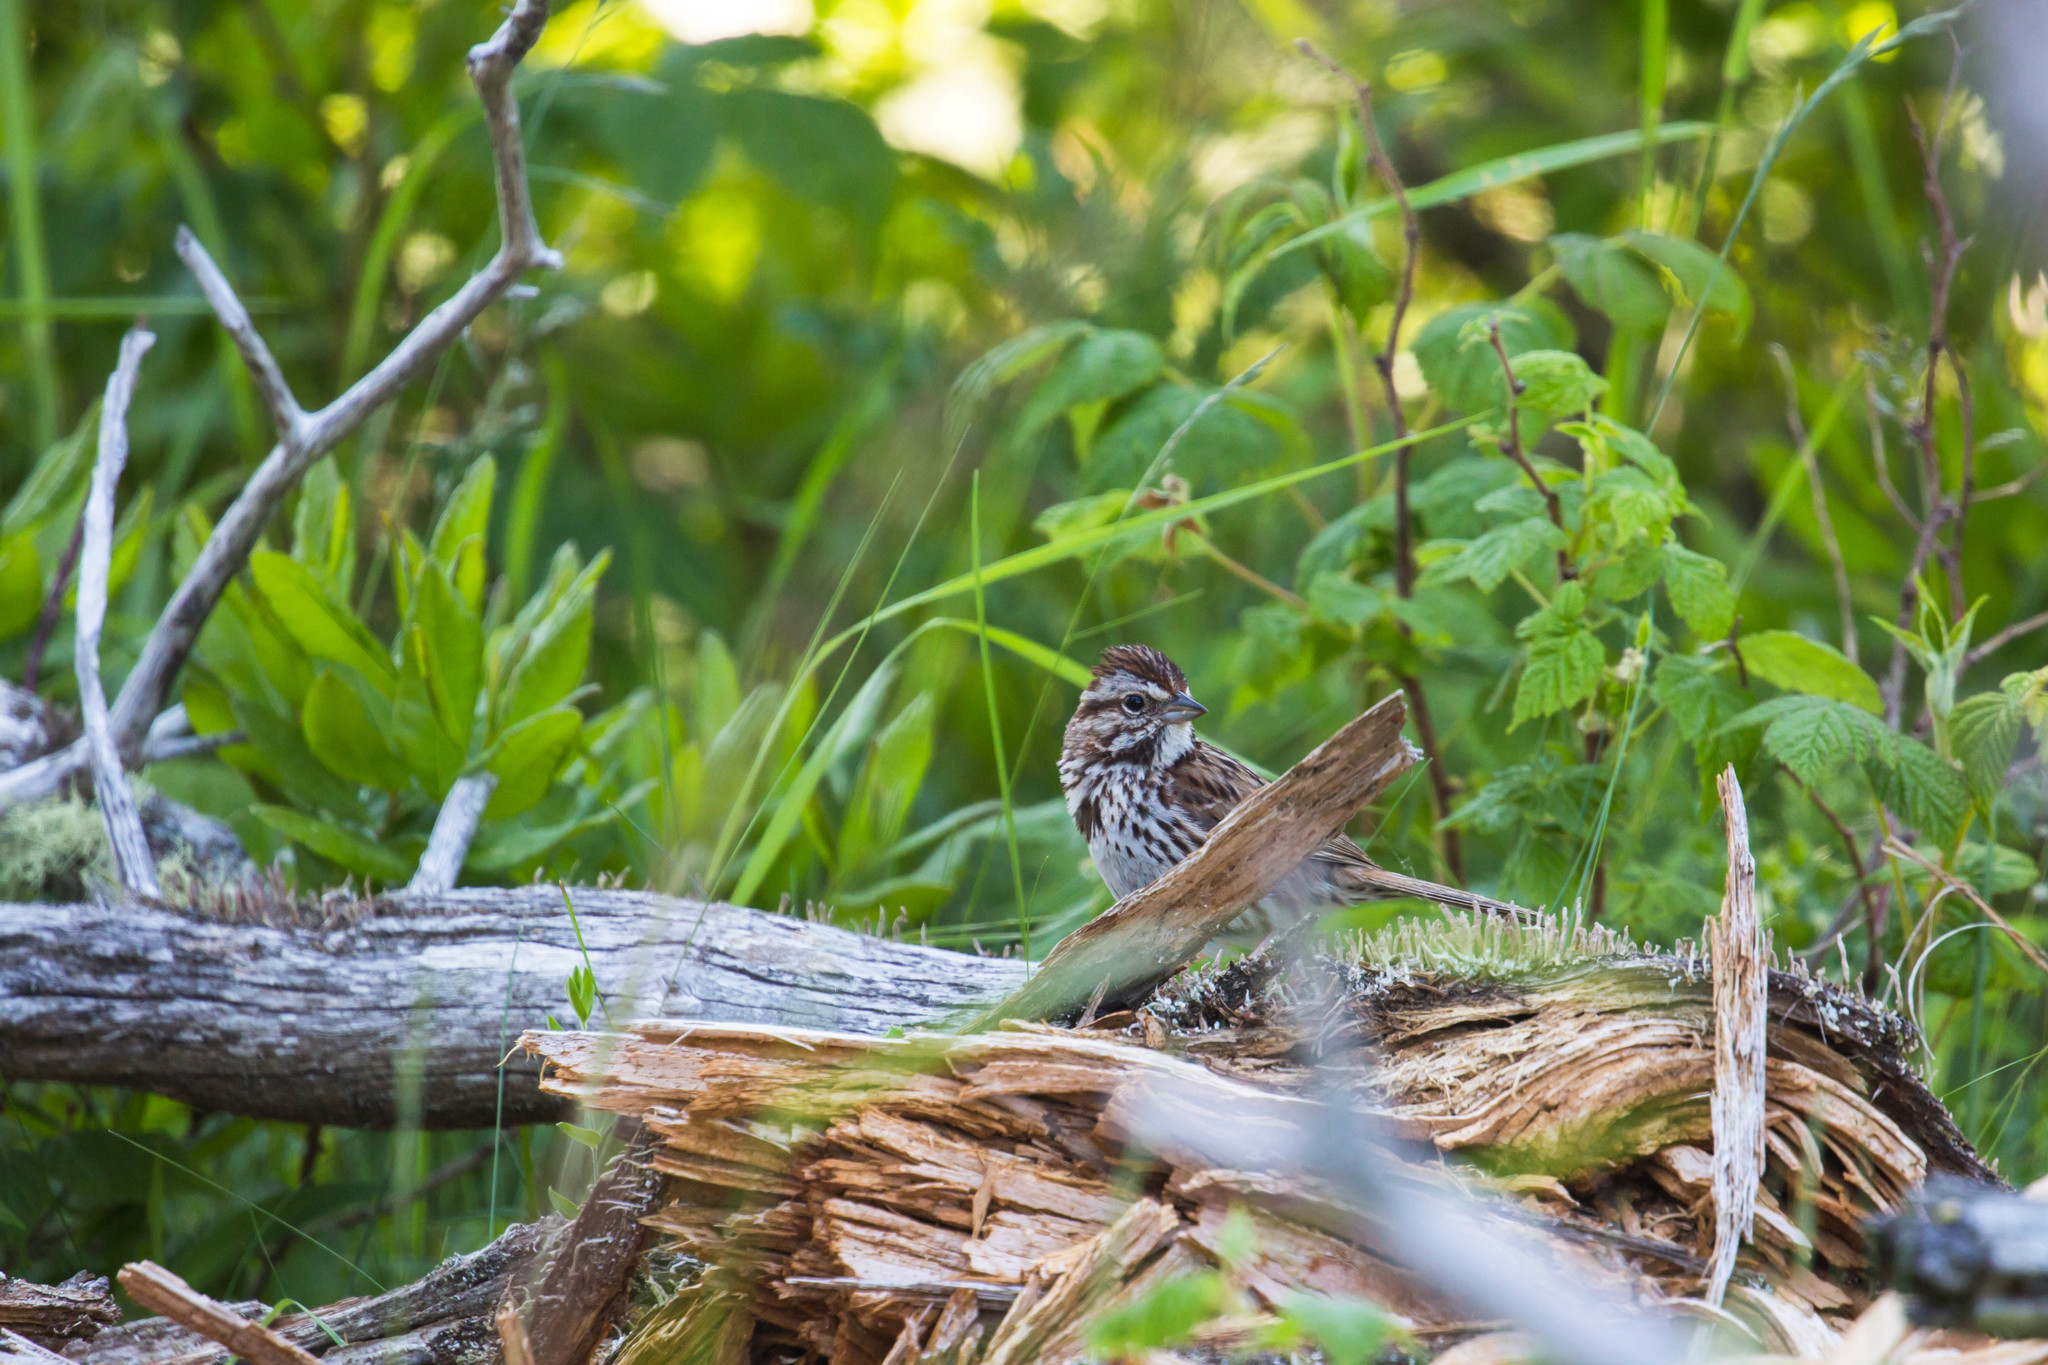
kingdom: Animalia
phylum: Chordata
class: Aves
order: Passeriformes
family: Passerellidae
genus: Melospiza
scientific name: Melospiza melodia
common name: Song sparrow
